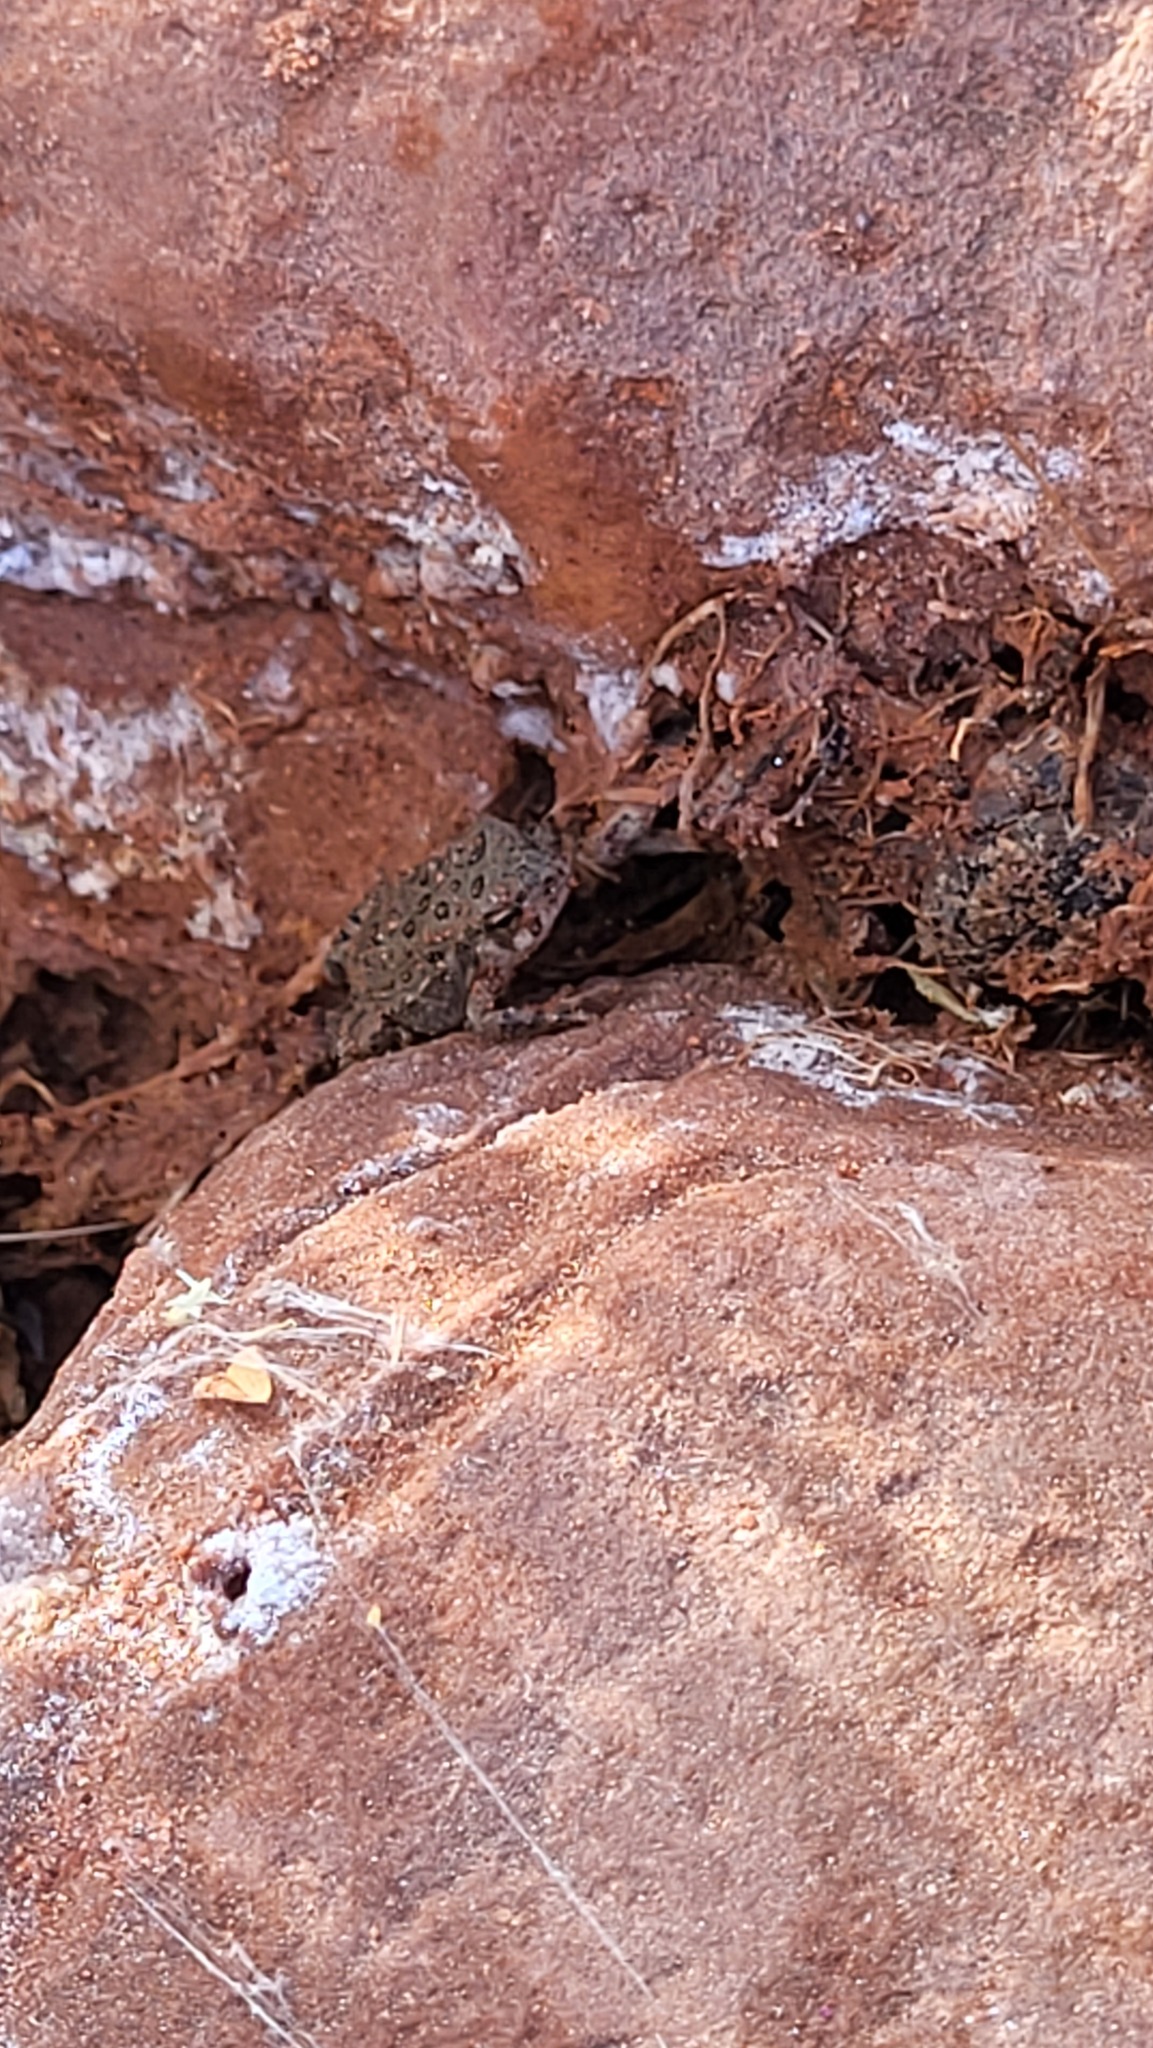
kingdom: Animalia
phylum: Chordata
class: Amphibia
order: Anura
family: Bufonidae
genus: Anaxyrus
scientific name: Anaxyrus woodhousii
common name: Woodhouse's toad
